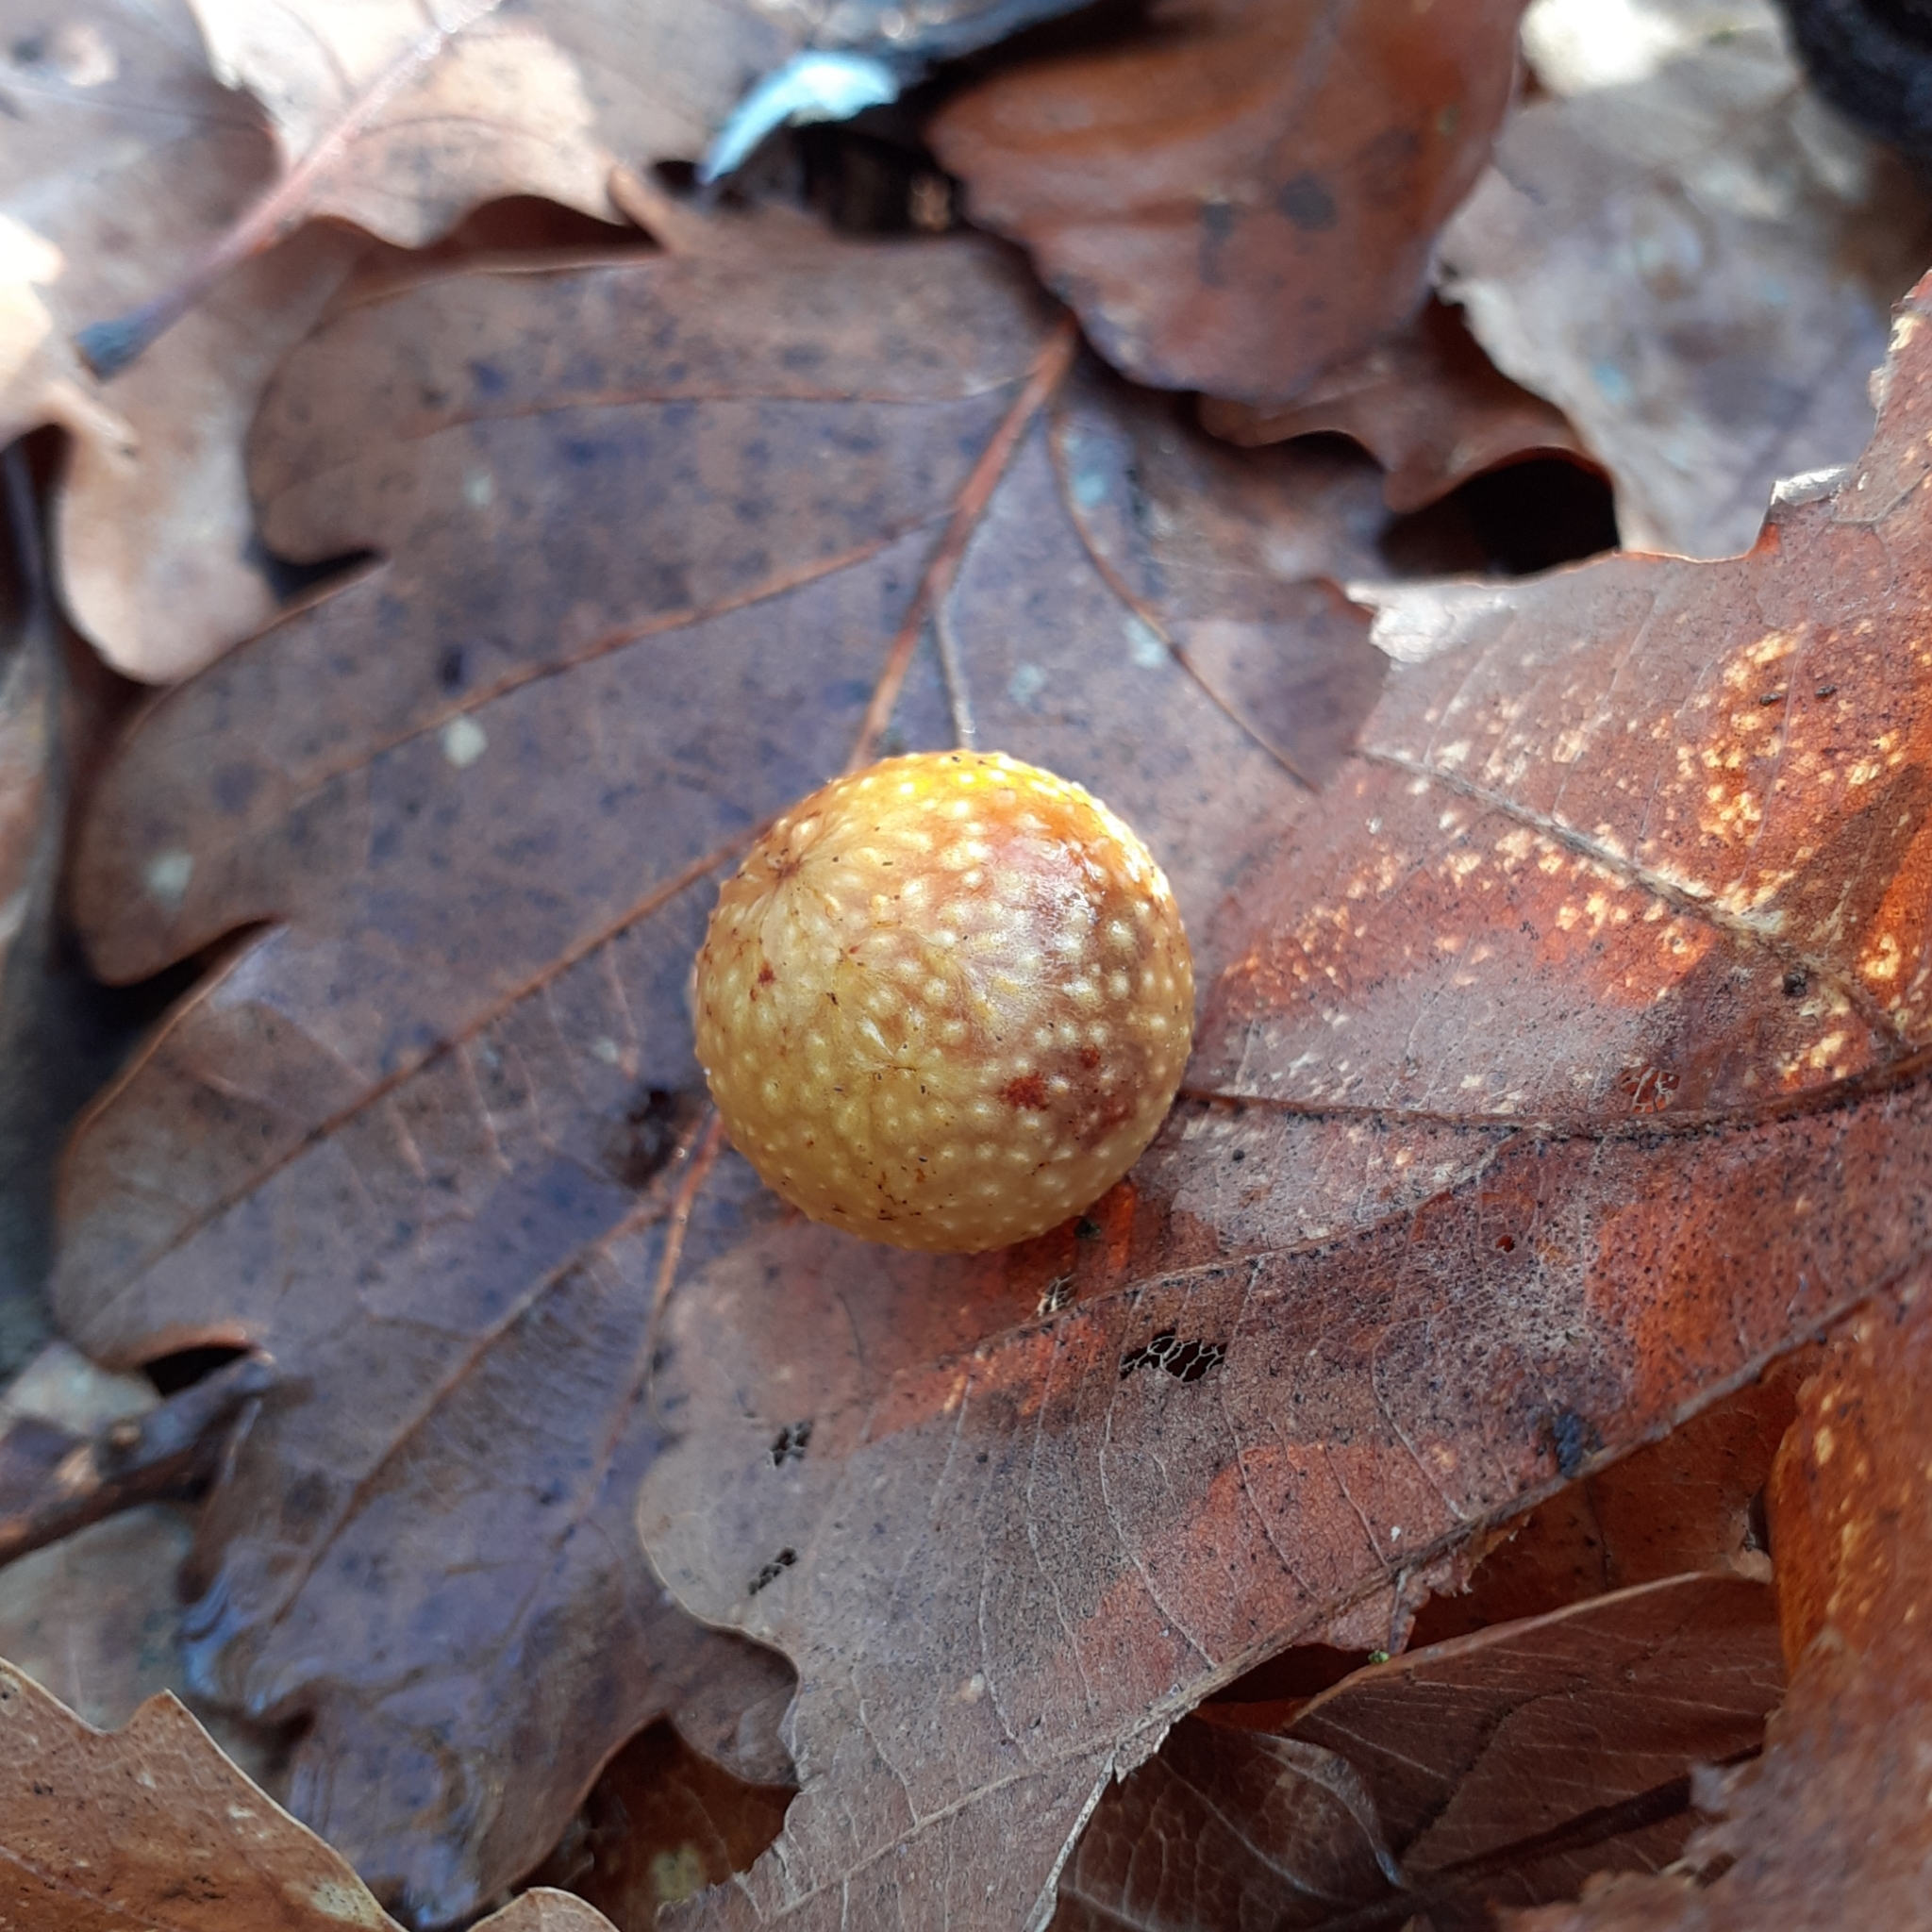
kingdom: Animalia
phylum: Arthropoda
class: Insecta
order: Hymenoptera
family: Cynipidae
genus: Cynips
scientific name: Cynips quercusfolii
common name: Cherry gall
